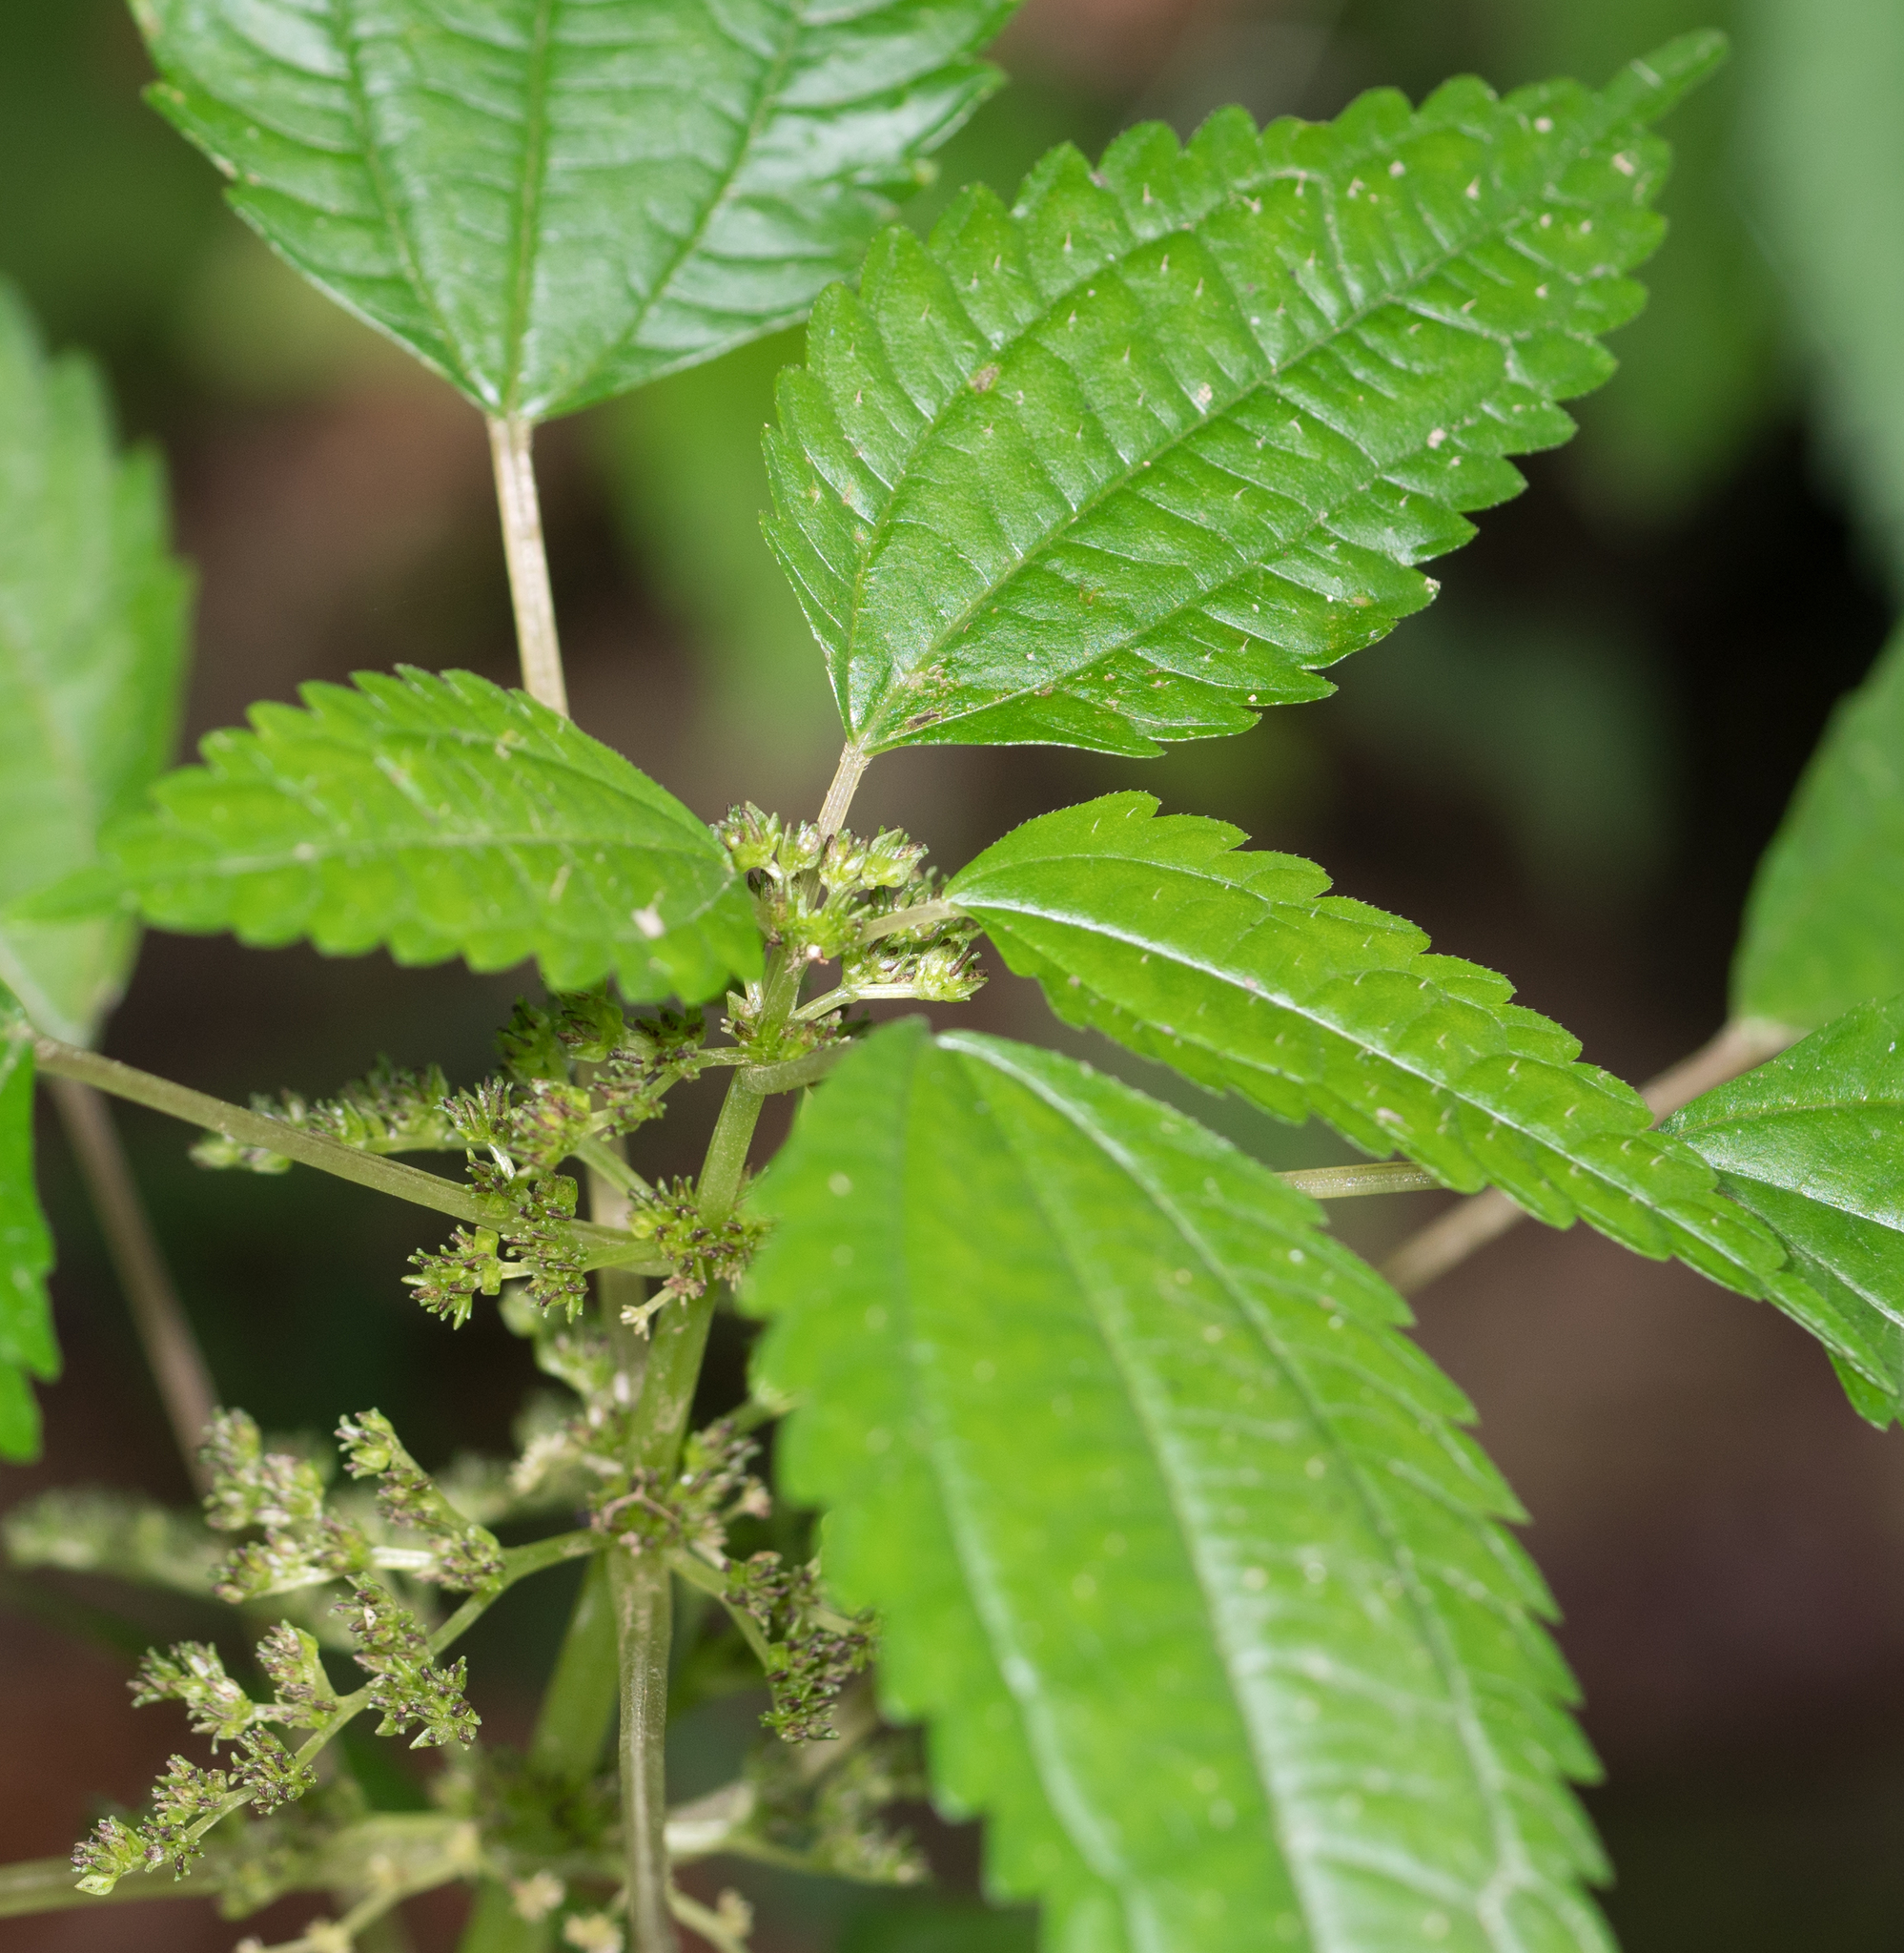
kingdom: Plantae
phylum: Tracheophyta
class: Magnoliopsida
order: Rosales
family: Urticaceae
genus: Pilea
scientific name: Pilea pumila
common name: Clearweed
